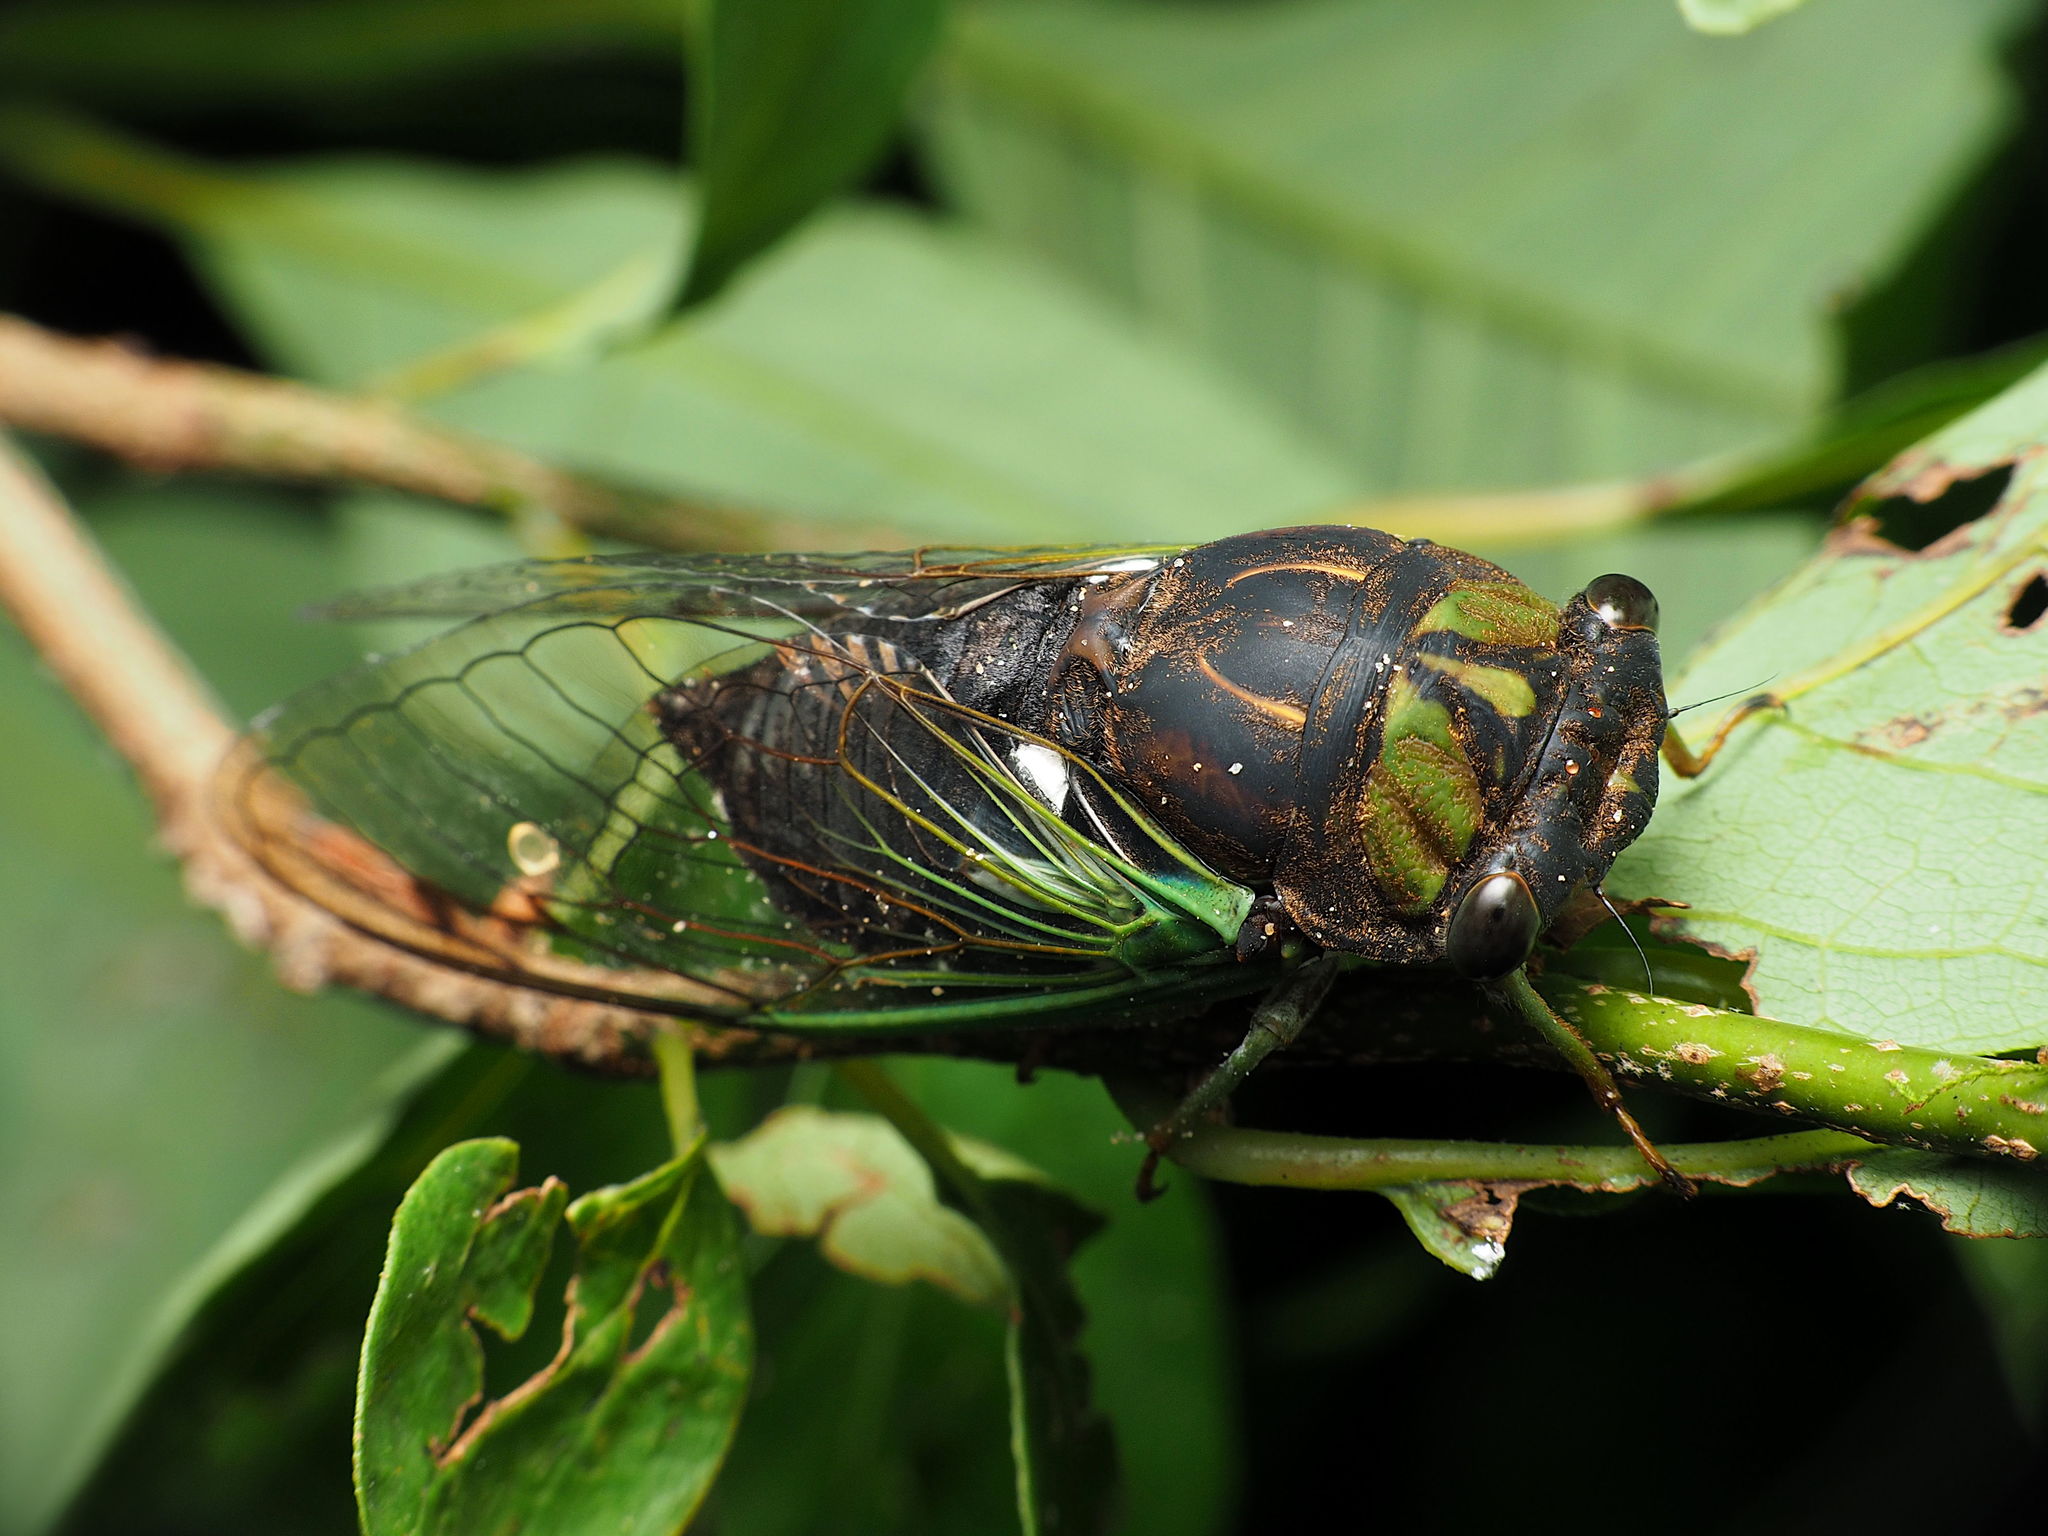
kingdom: Animalia
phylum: Arthropoda
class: Insecta
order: Hemiptera
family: Cicadidae
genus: Neotibicen
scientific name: Neotibicen tibicen
